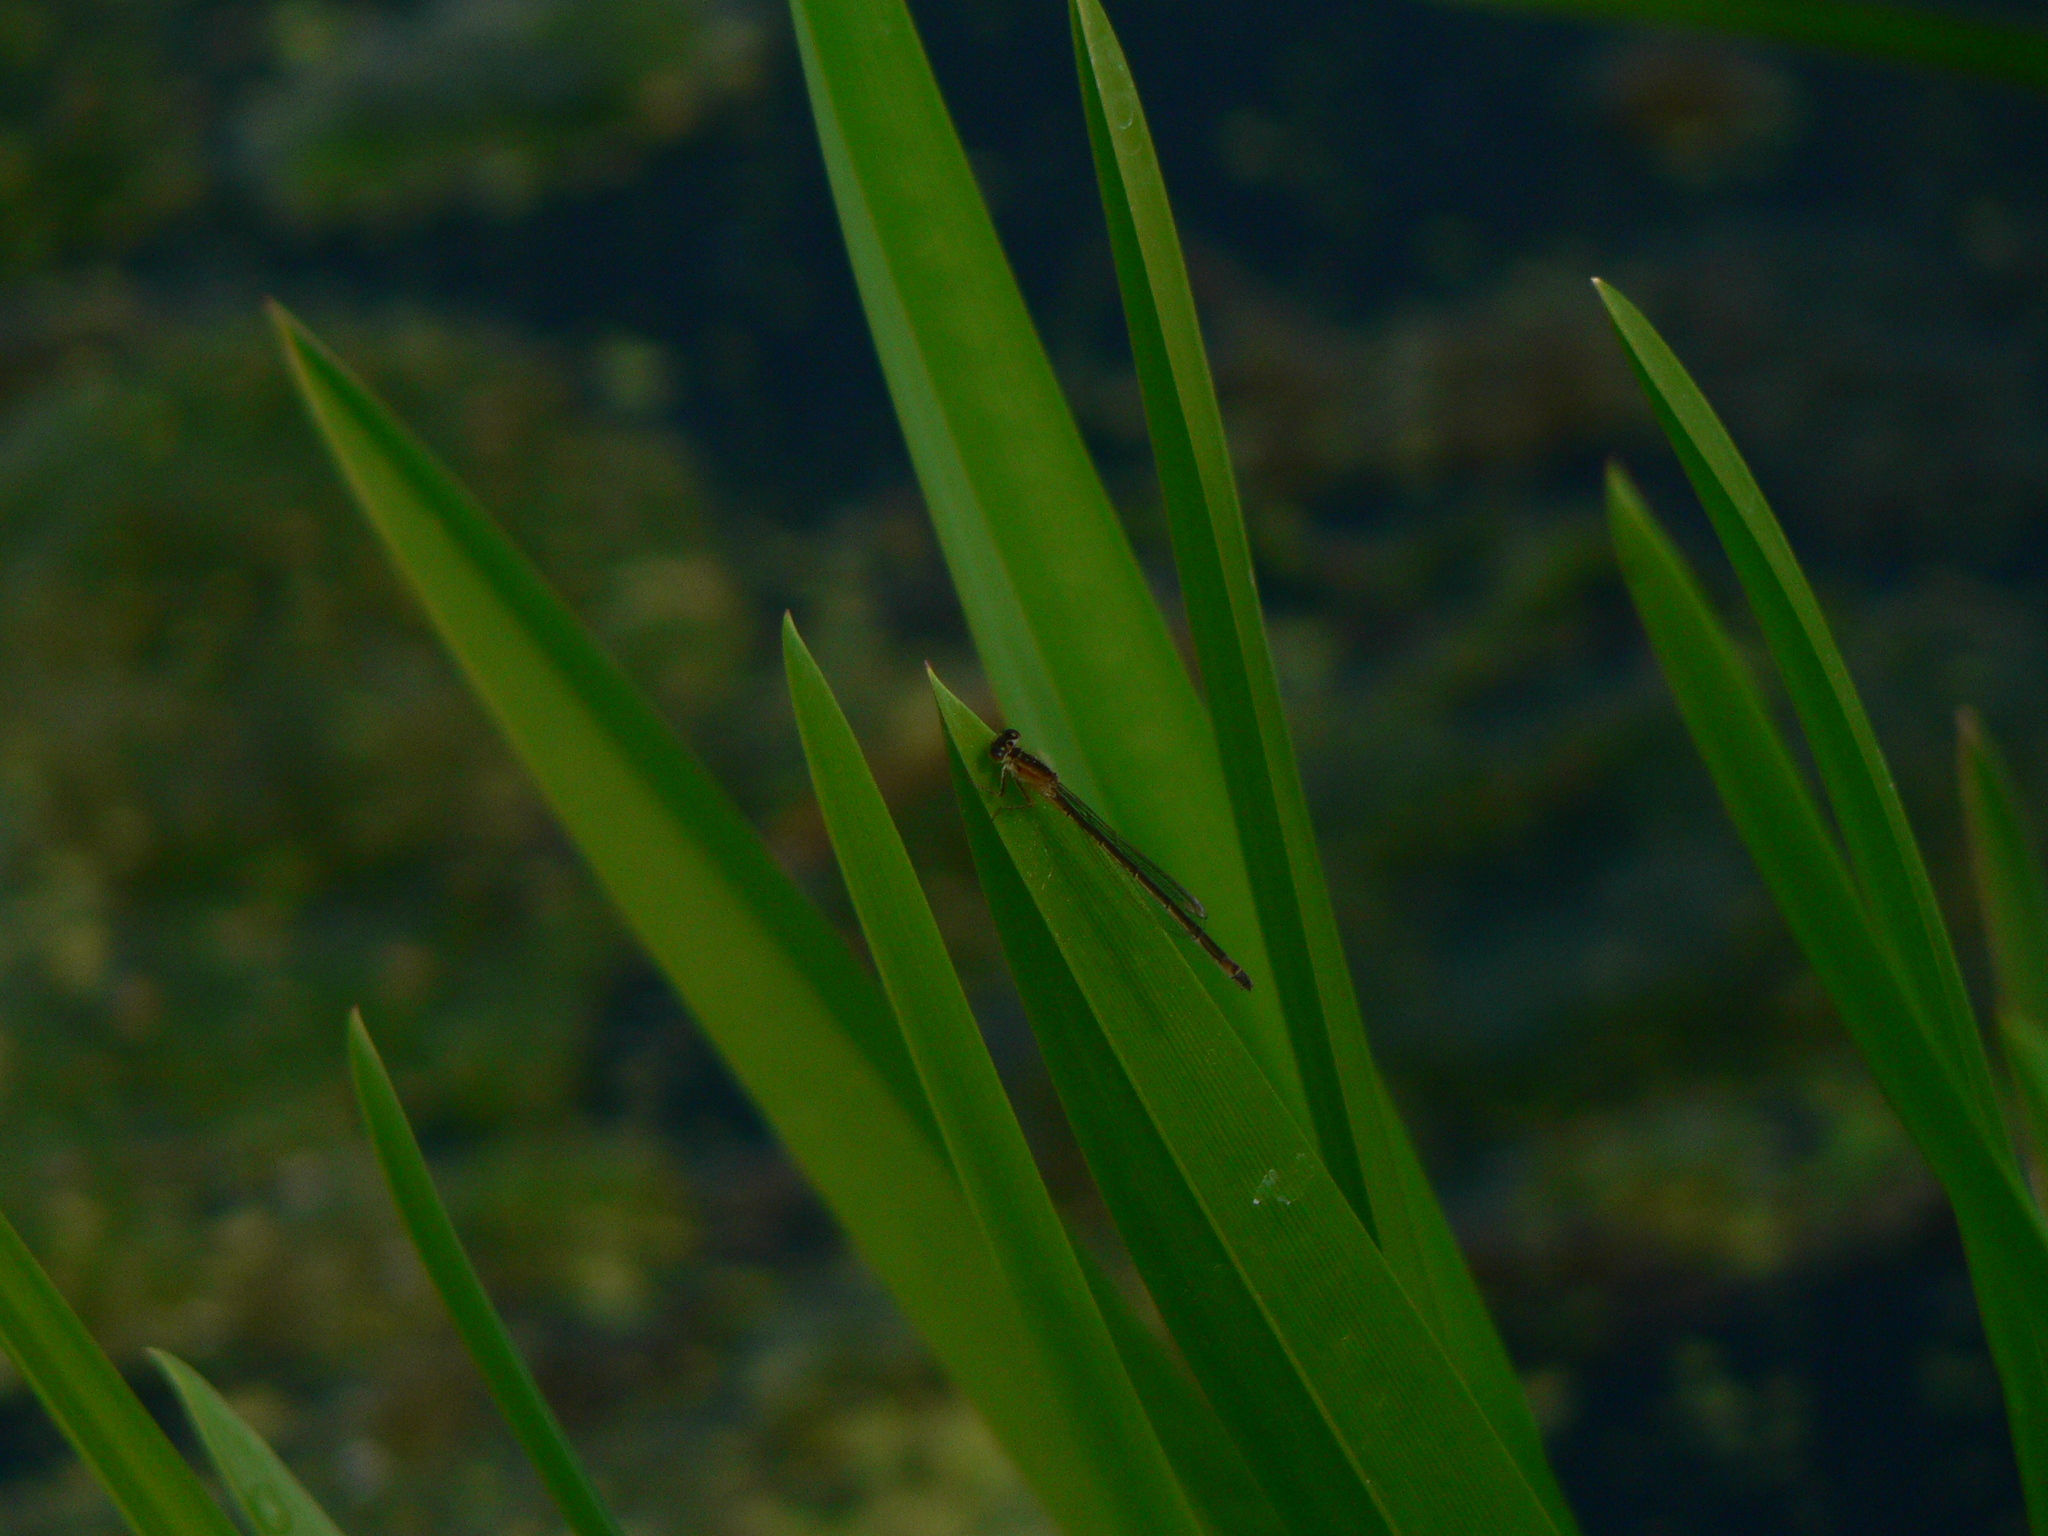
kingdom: Animalia
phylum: Arthropoda
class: Insecta
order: Odonata
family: Coenagrionidae
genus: Ischnura
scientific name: Ischnura elegans
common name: Blue-tailed damselfly
